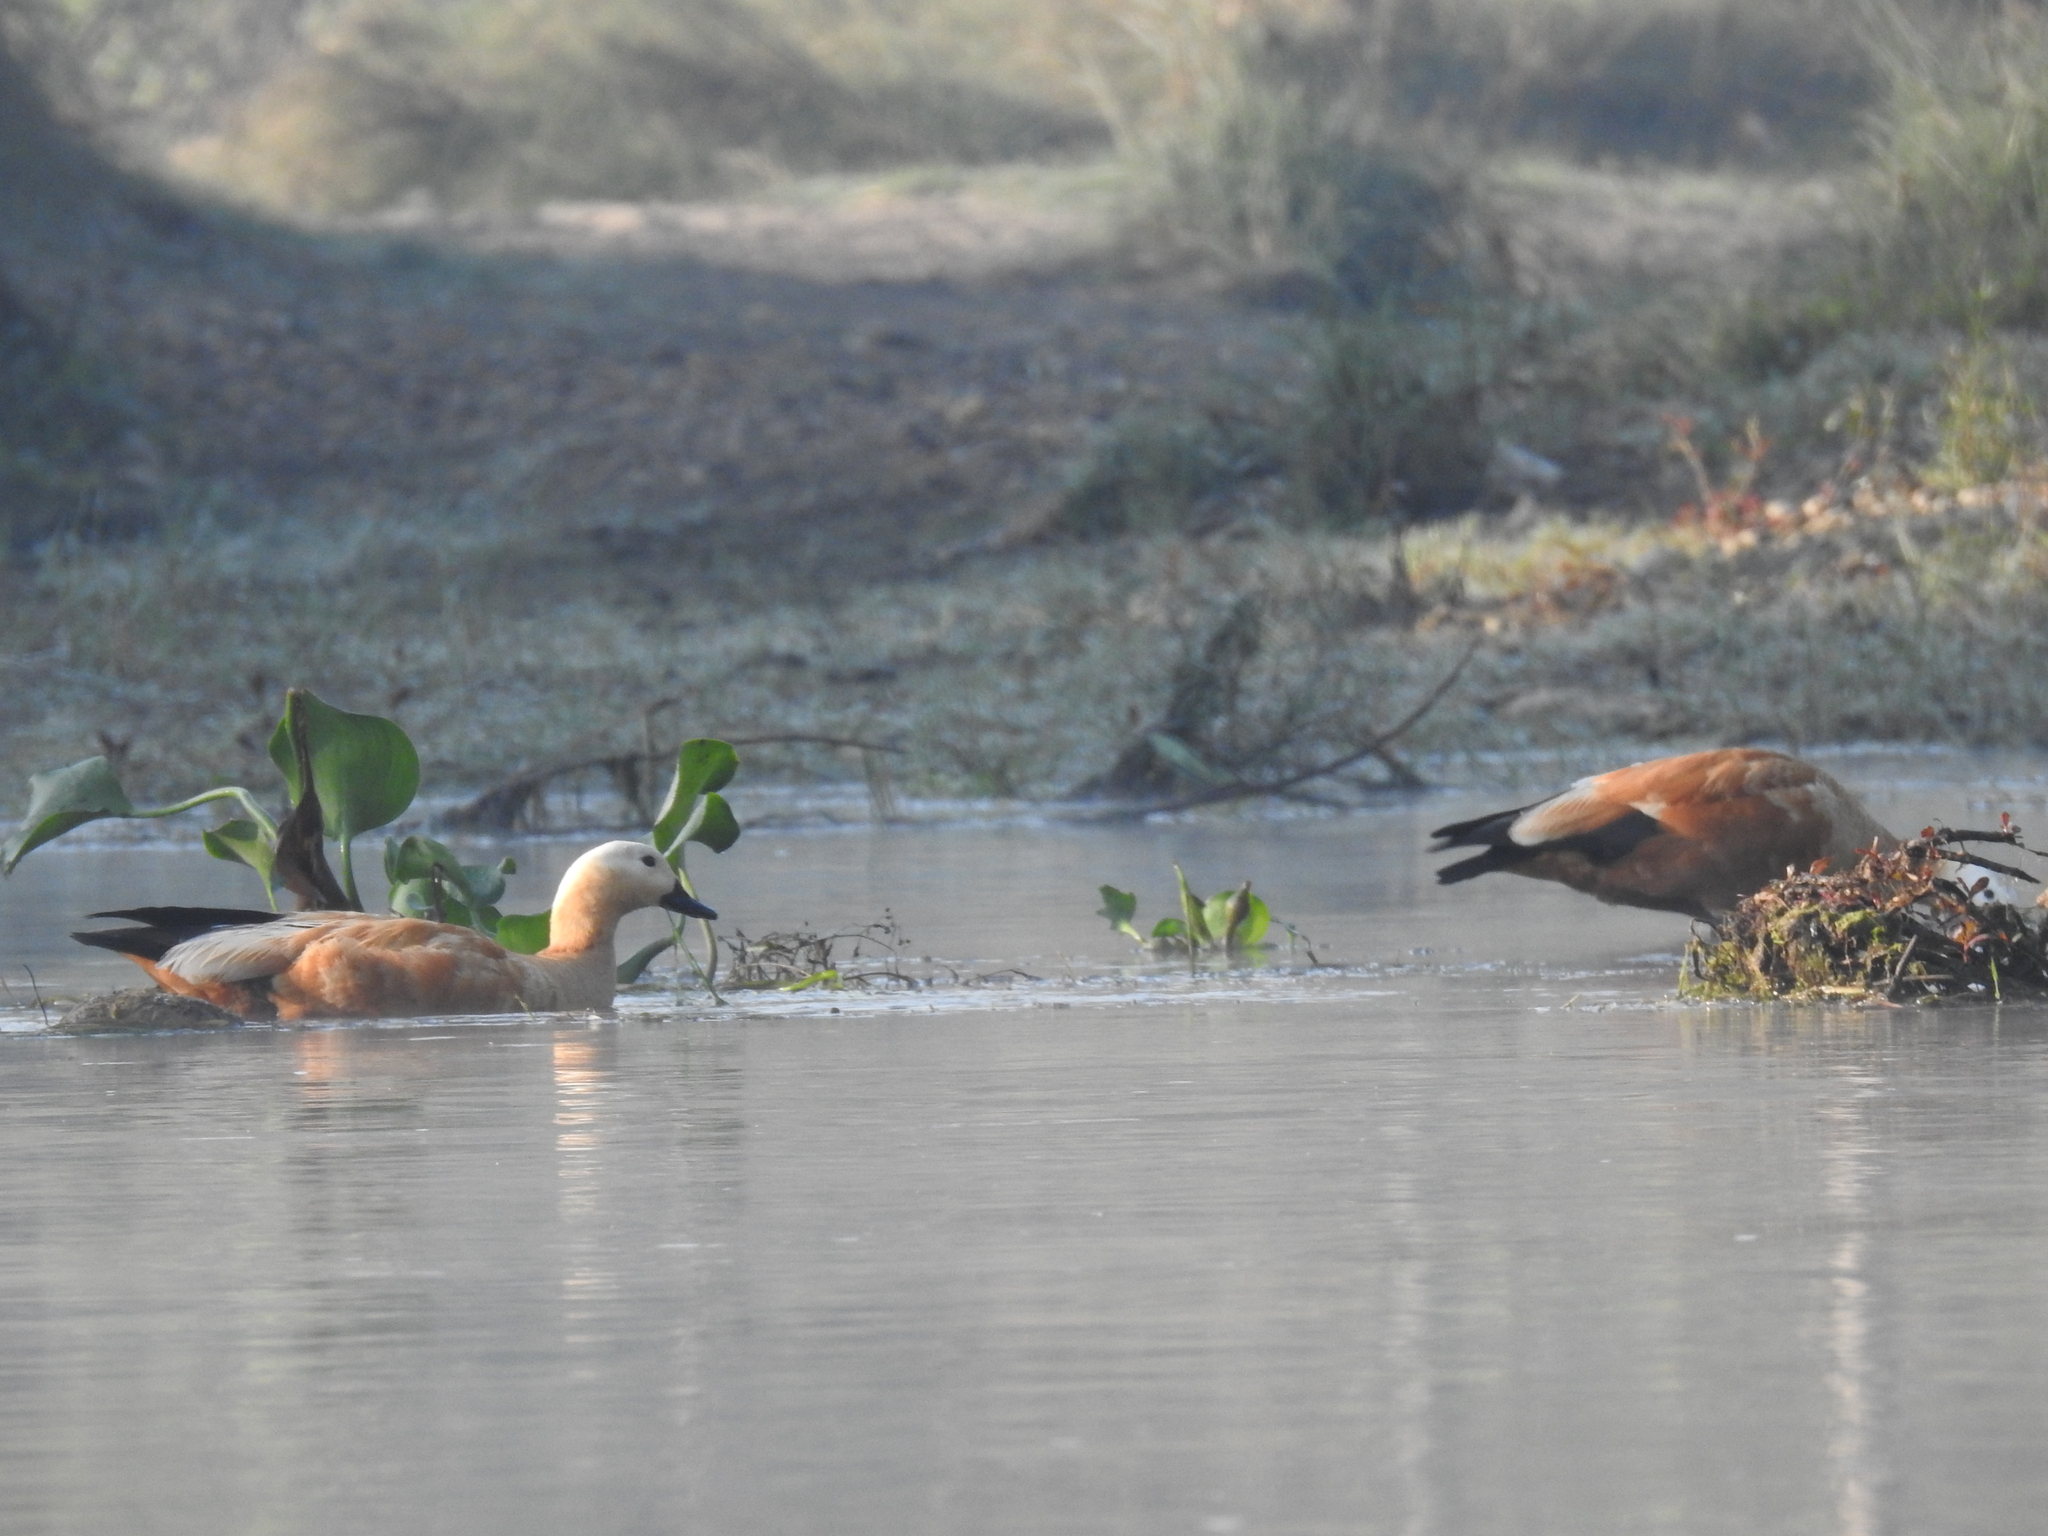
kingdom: Animalia
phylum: Chordata
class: Aves
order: Anseriformes
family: Anatidae
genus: Tadorna
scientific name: Tadorna ferruginea
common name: Ruddy shelduck
